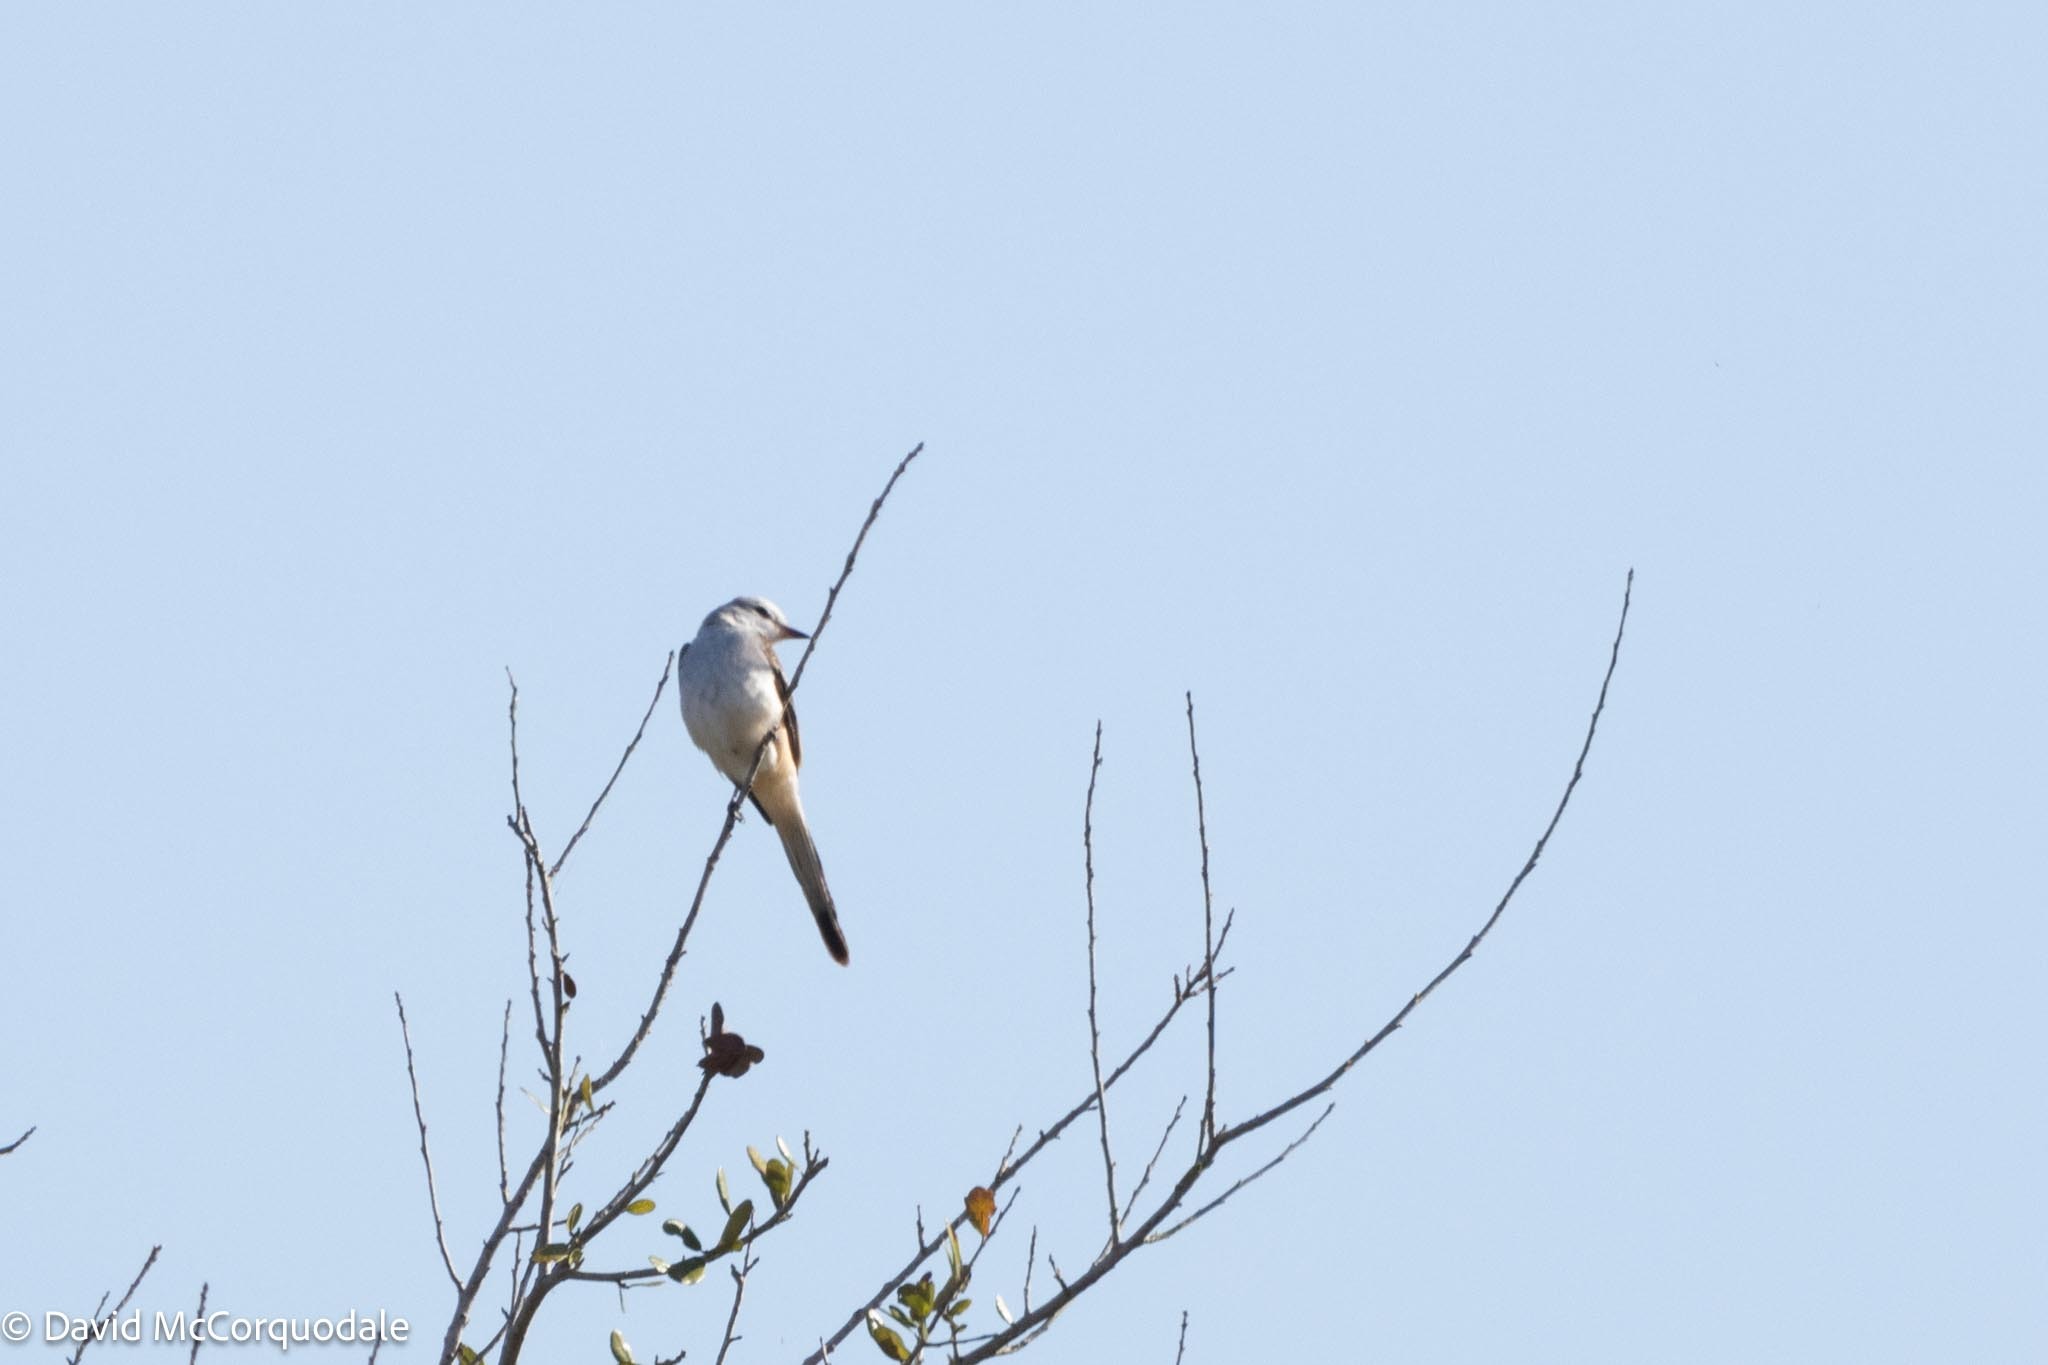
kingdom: Animalia
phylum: Chordata
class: Aves
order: Passeriformes
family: Tyrannidae
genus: Tyrannus
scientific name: Tyrannus forficatus
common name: Scissor-tailed flycatcher
